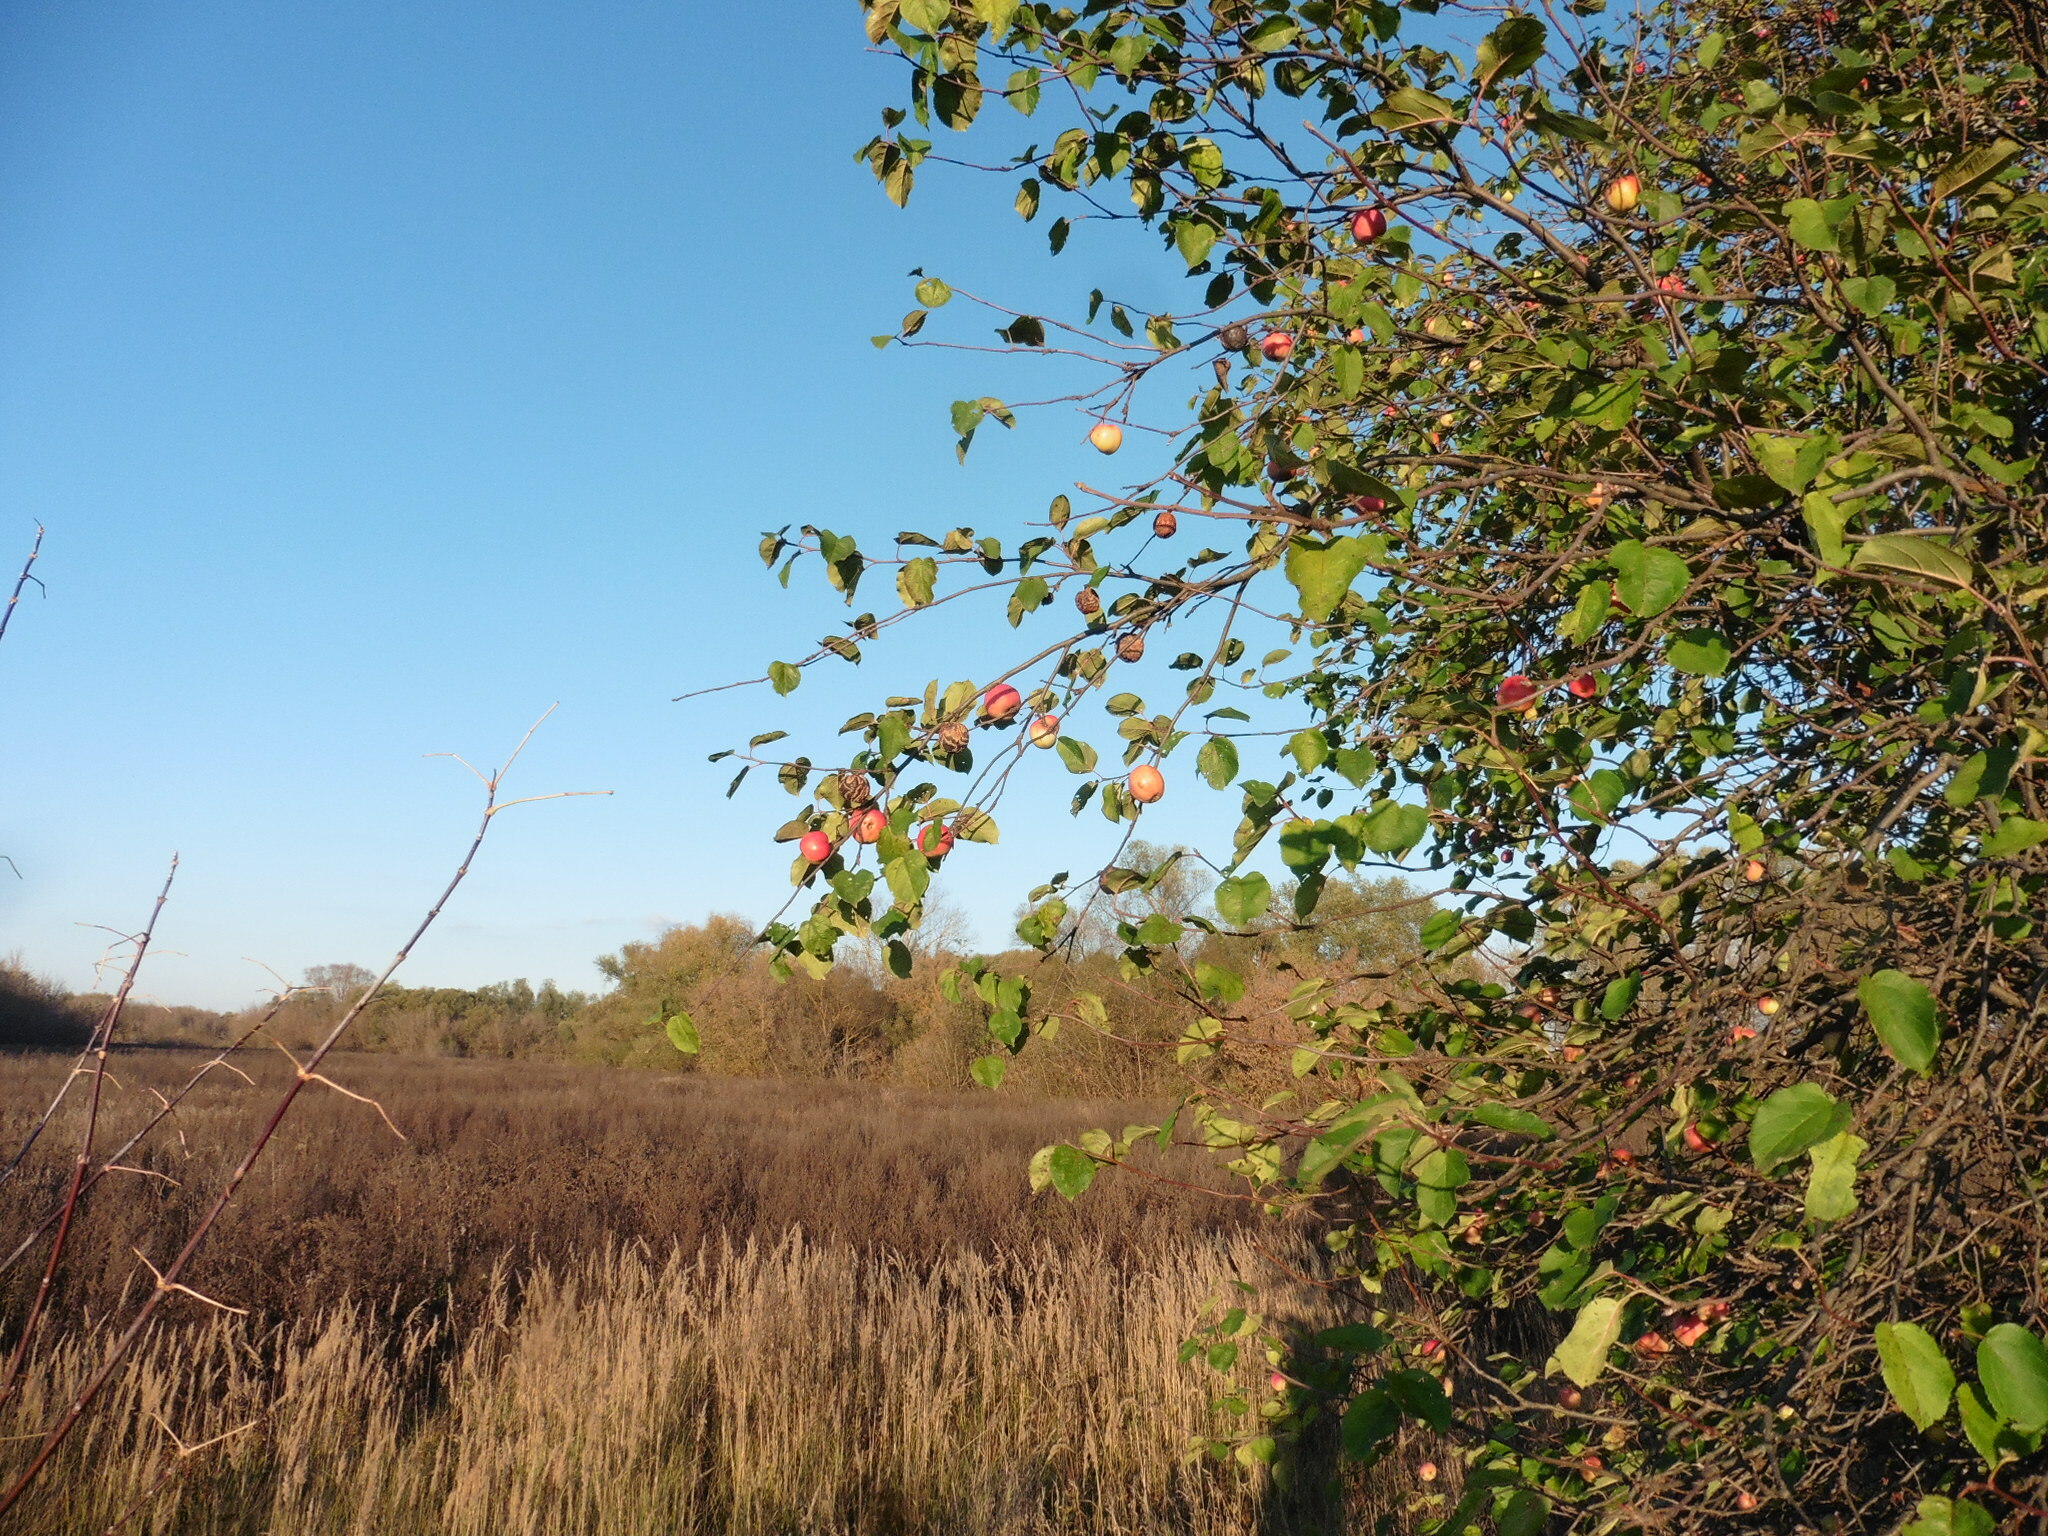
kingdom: Plantae
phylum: Tracheophyta
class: Magnoliopsida
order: Rosales
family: Rosaceae
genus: Malus
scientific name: Malus domestica
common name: Apple
